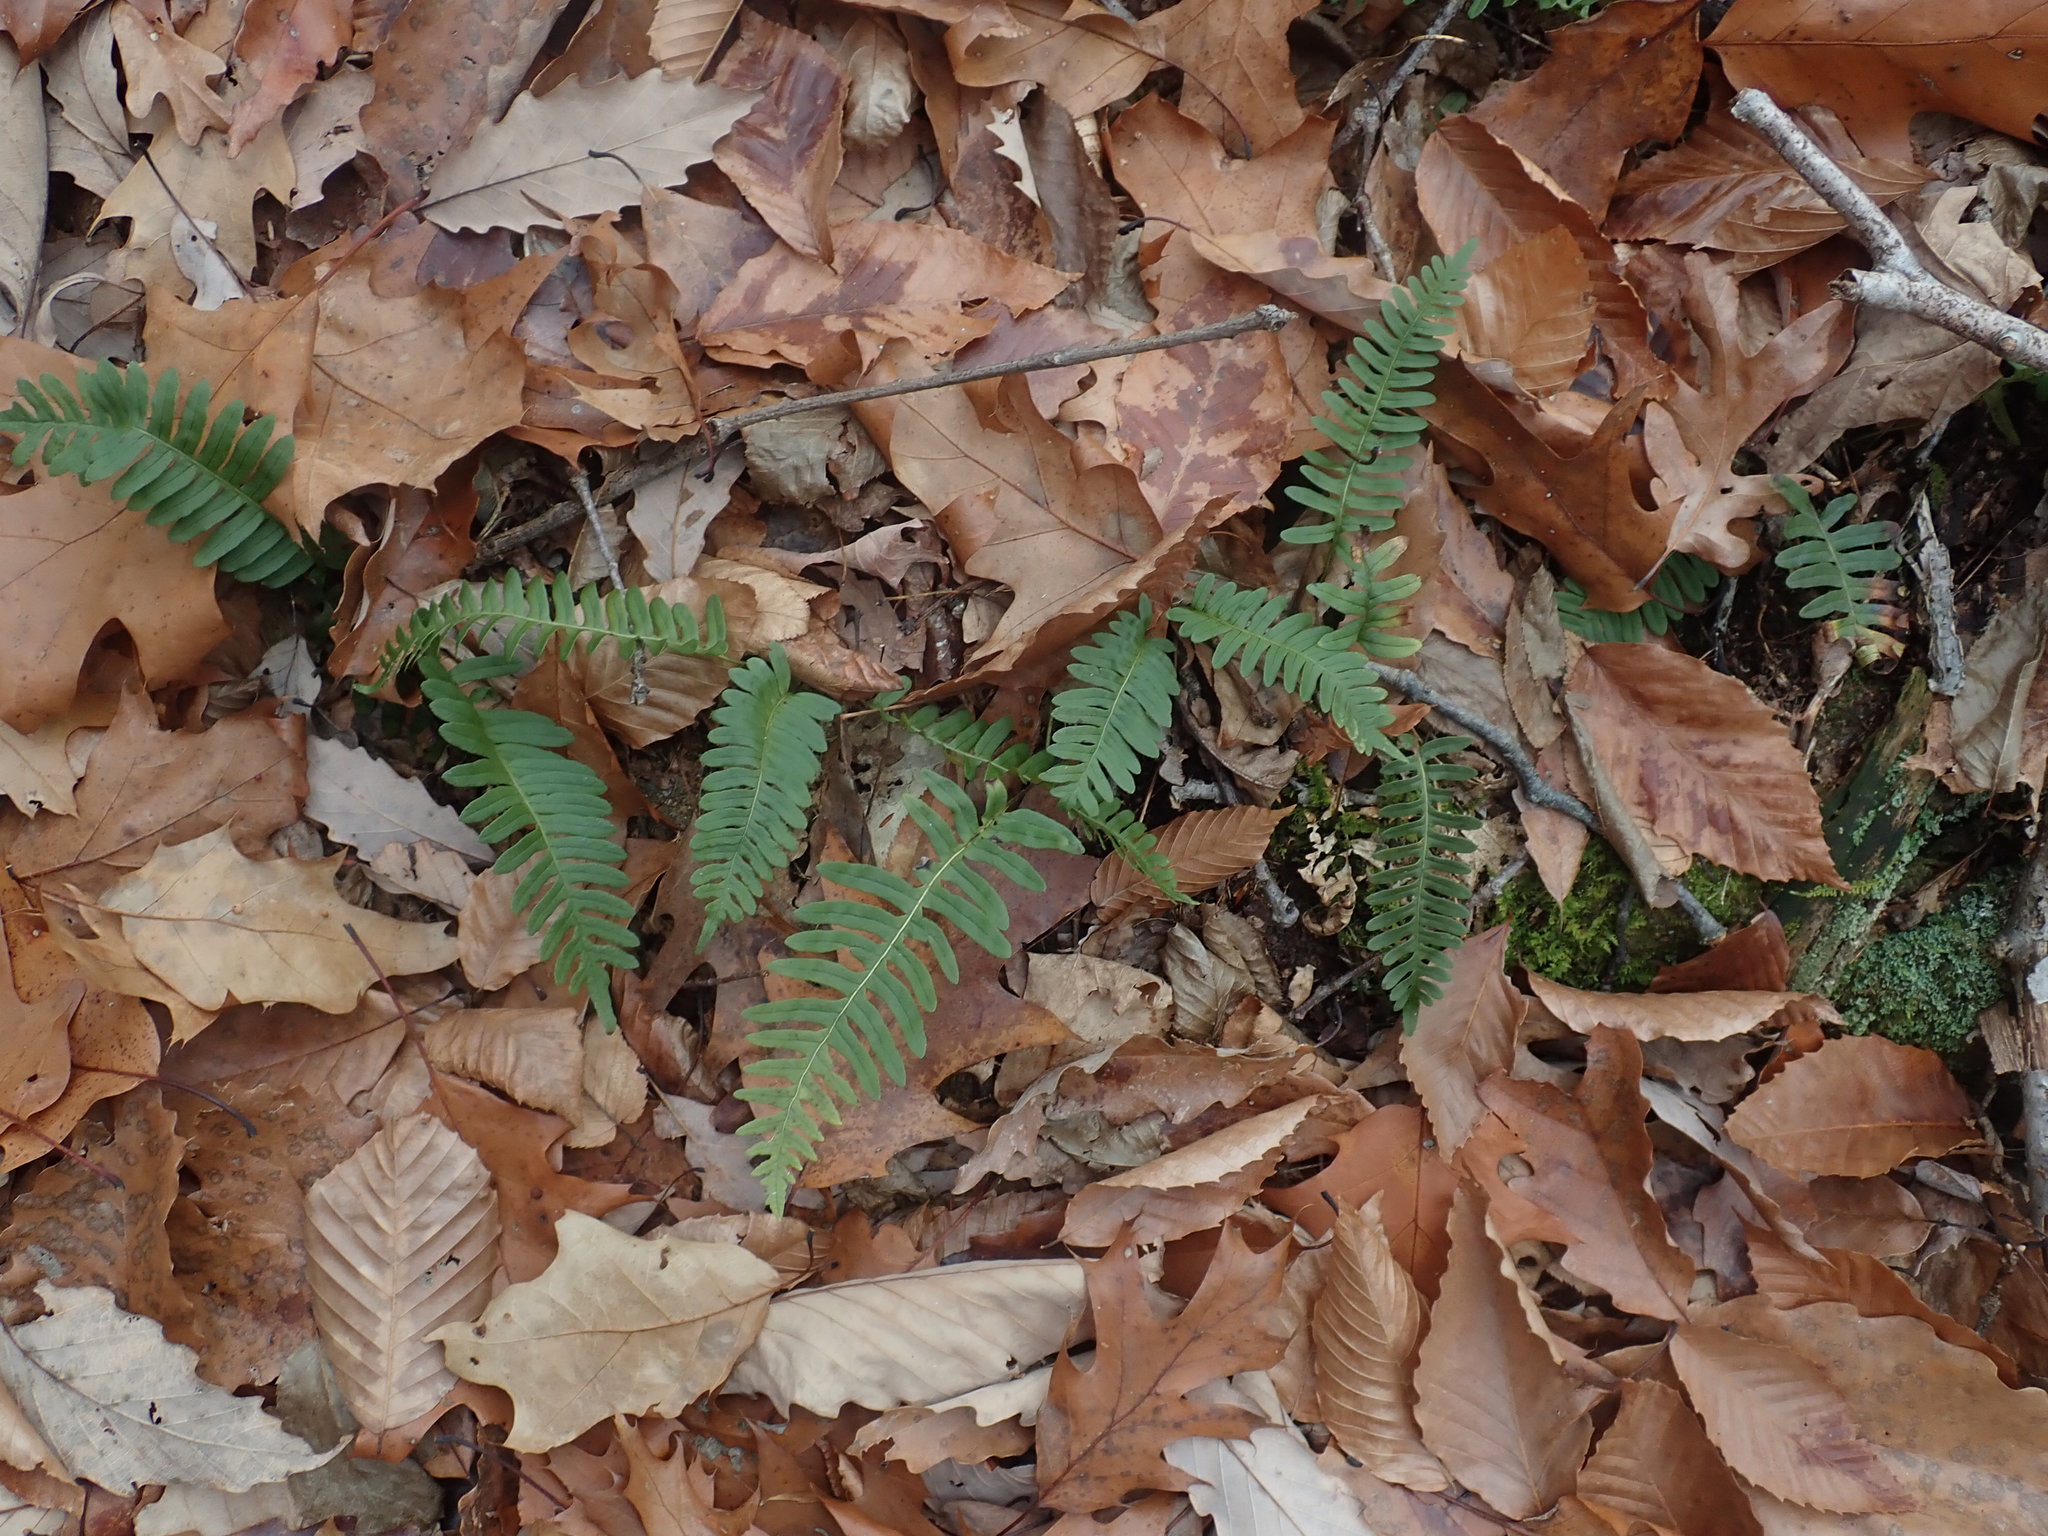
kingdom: Plantae
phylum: Tracheophyta
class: Polypodiopsida
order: Polypodiales
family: Polypodiaceae
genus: Polypodium
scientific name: Polypodium virginianum
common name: American wall fern
